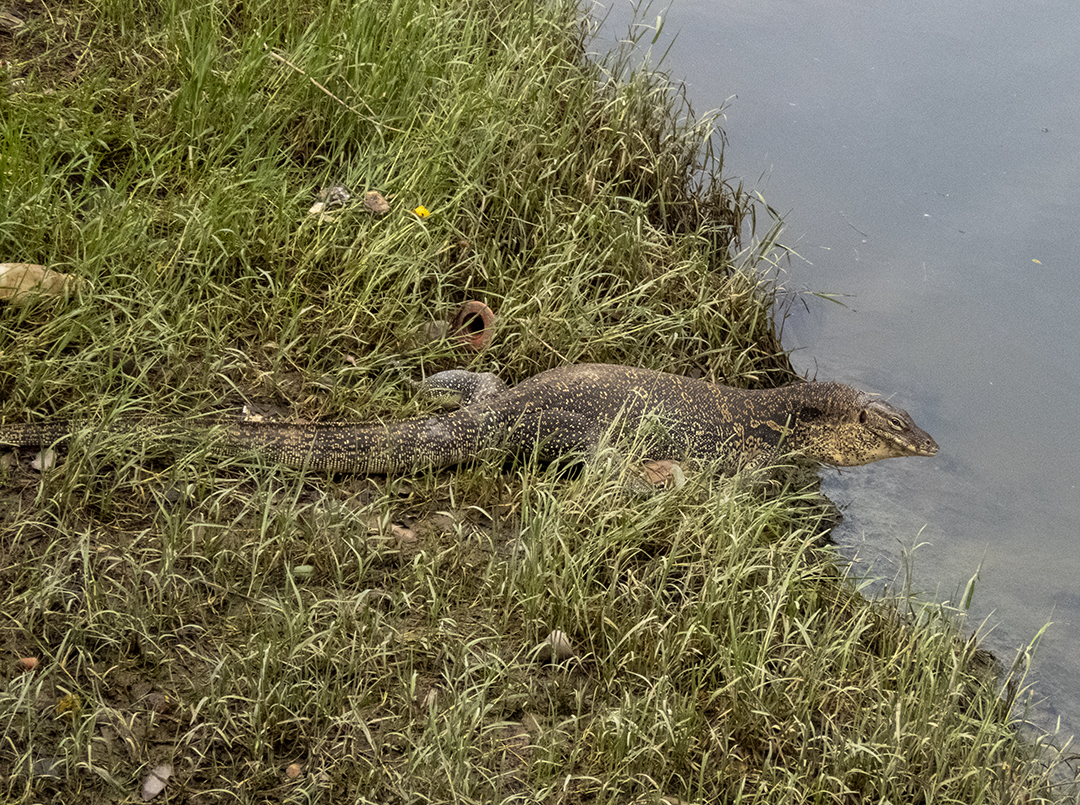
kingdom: Animalia
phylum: Chordata
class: Squamata
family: Varanidae
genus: Varanus
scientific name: Varanus salvator
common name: Common water monitor
